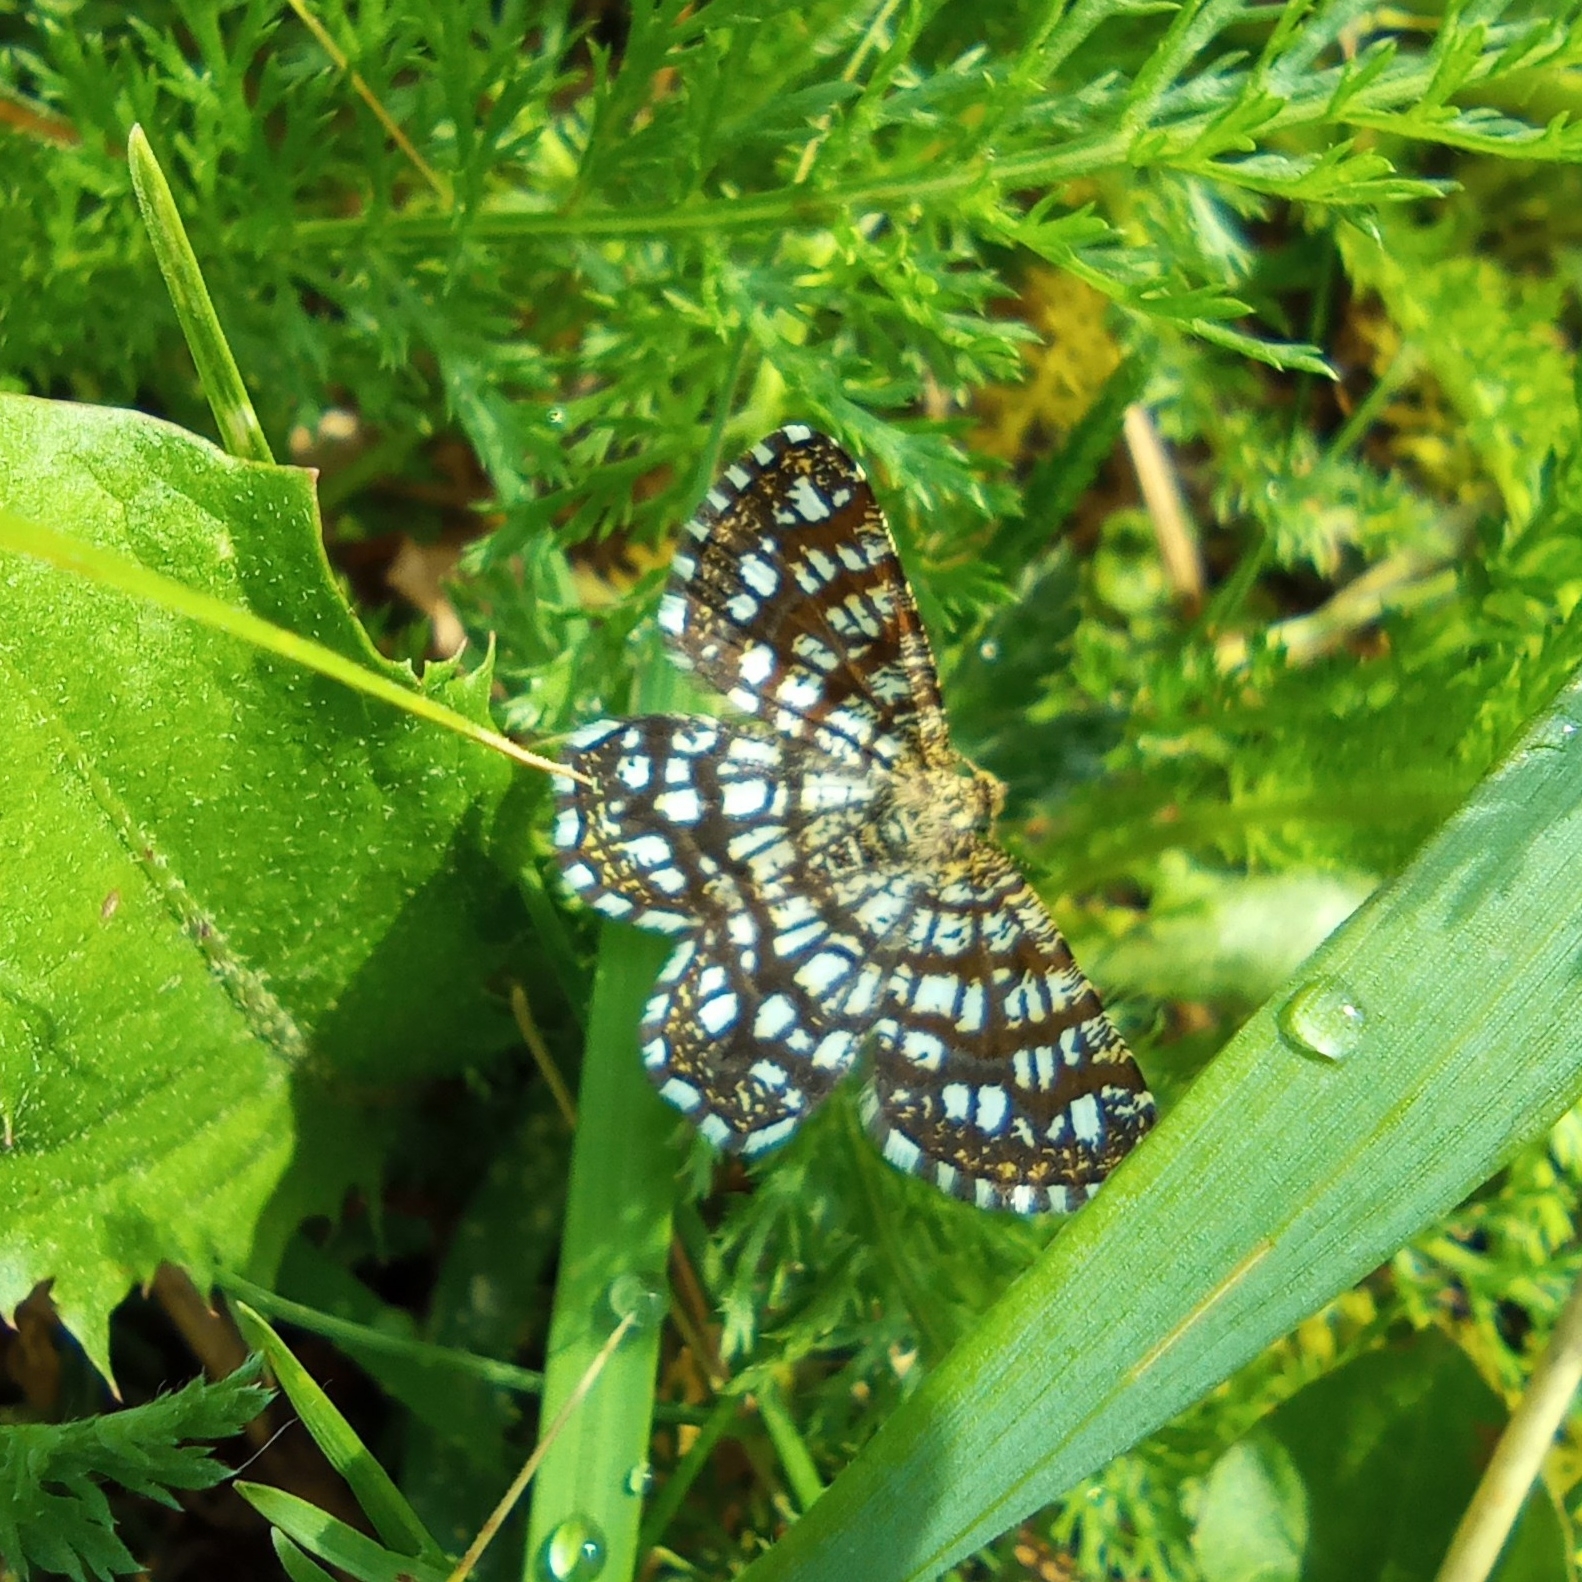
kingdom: Animalia
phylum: Arthropoda
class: Insecta
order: Lepidoptera
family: Geometridae
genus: Chiasmia
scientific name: Chiasmia clathrata
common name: Latticed heath
